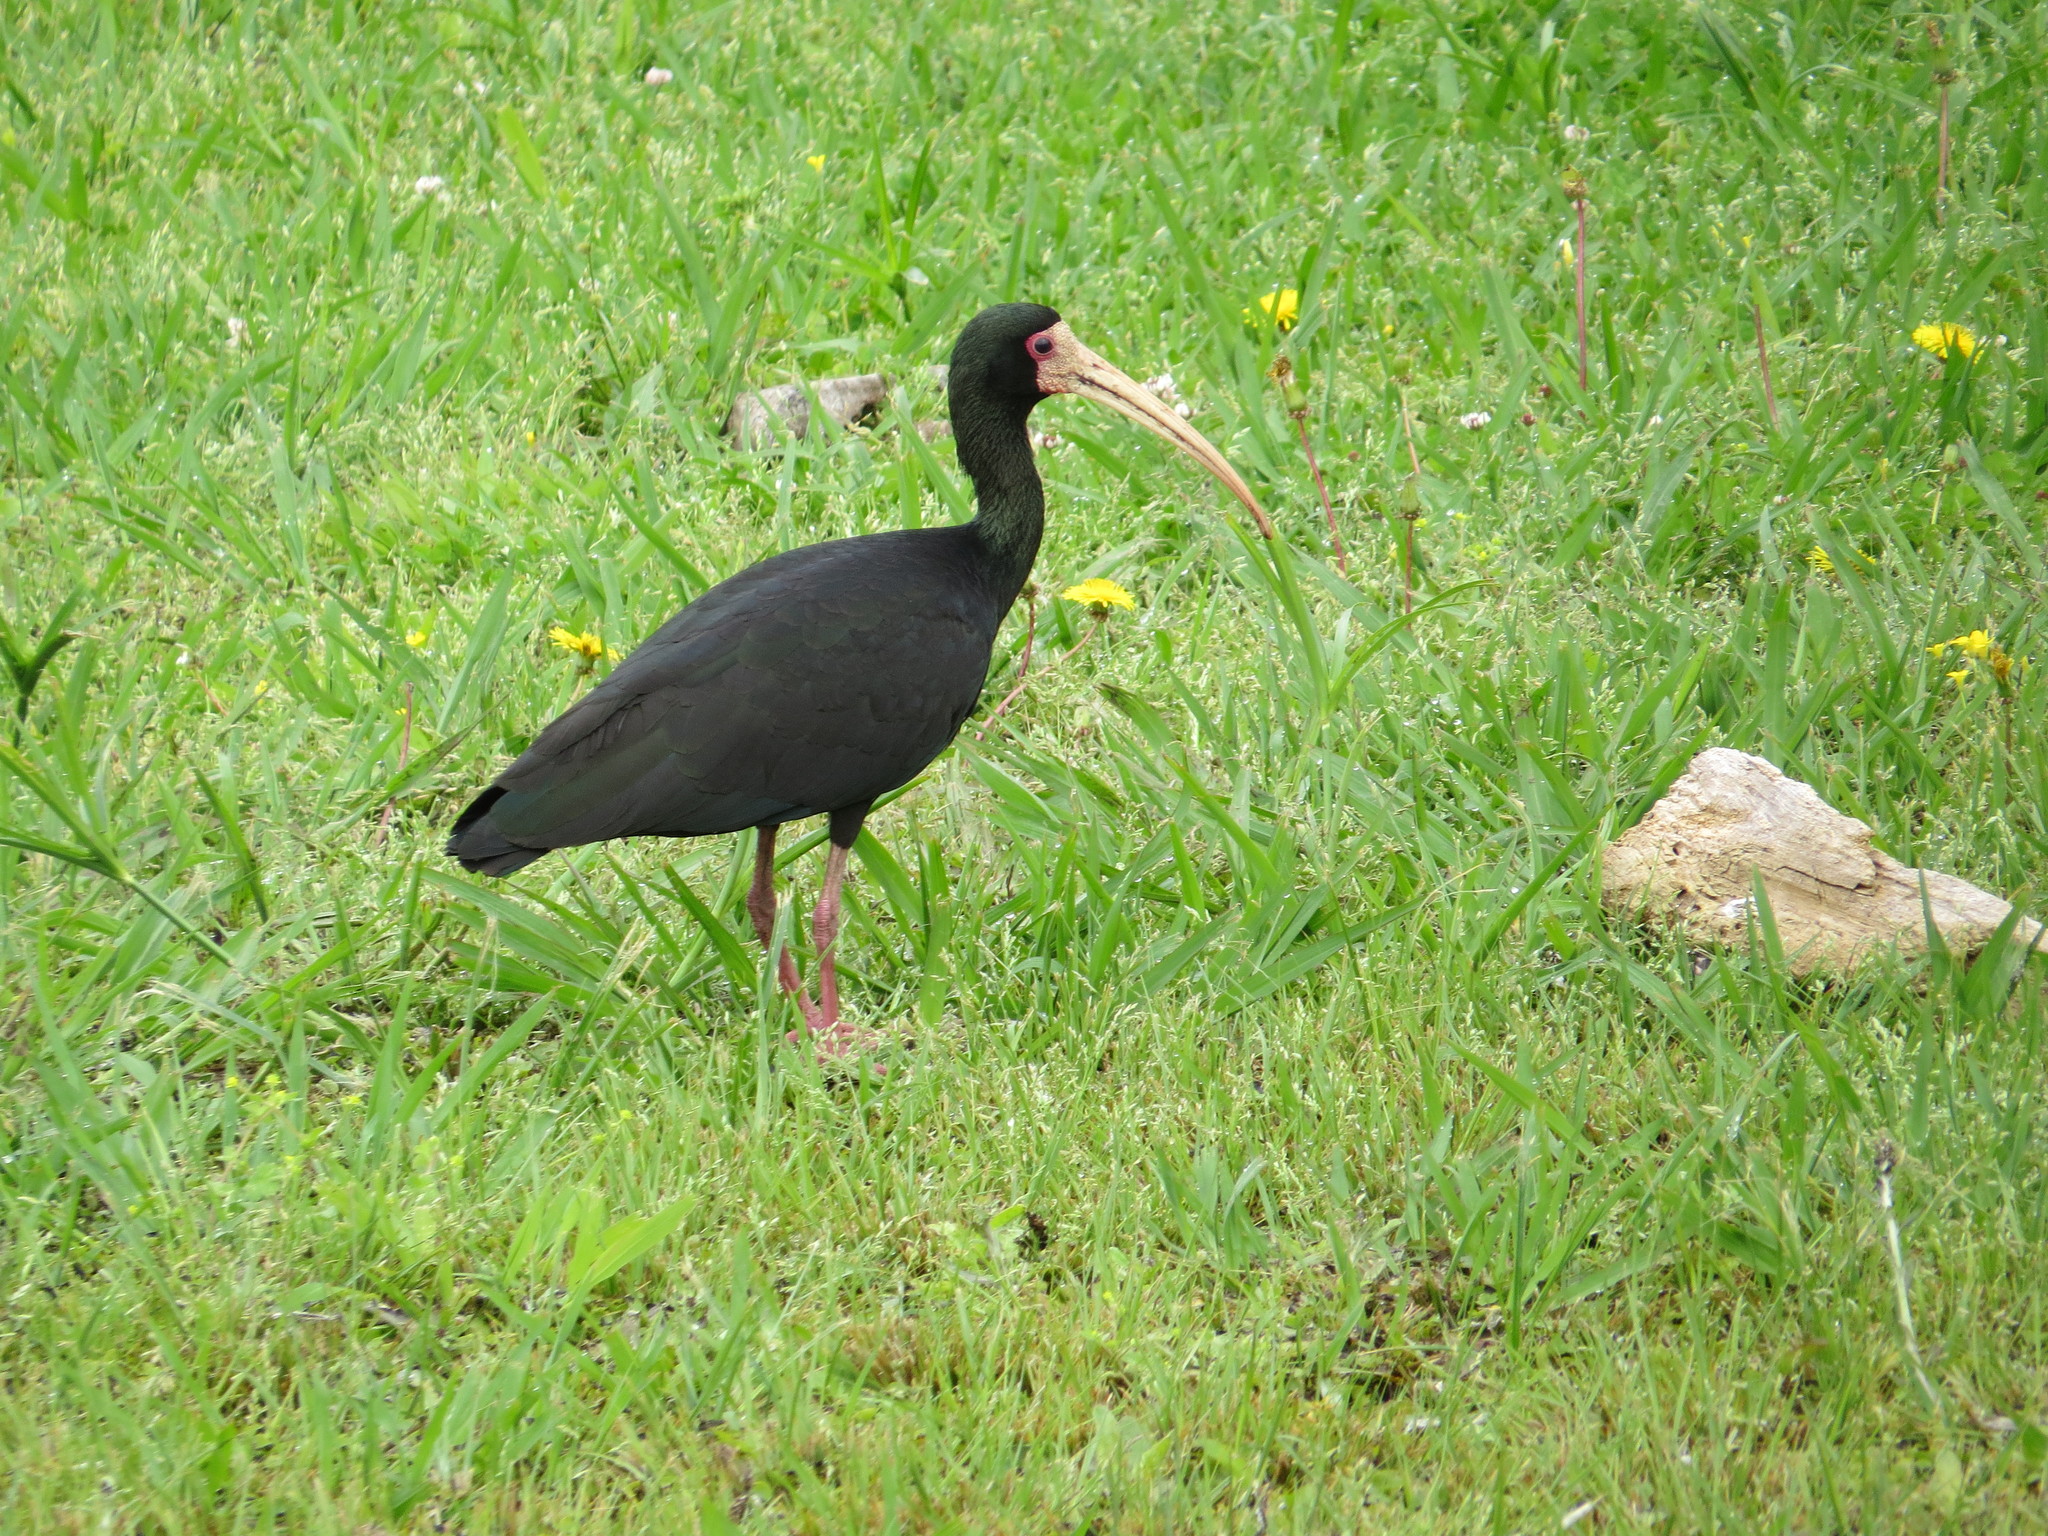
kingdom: Animalia
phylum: Chordata
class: Aves
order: Pelecaniformes
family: Threskiornithidae
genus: Phimosus
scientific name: Phimosus infuscatus
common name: Bare-faced ibis
